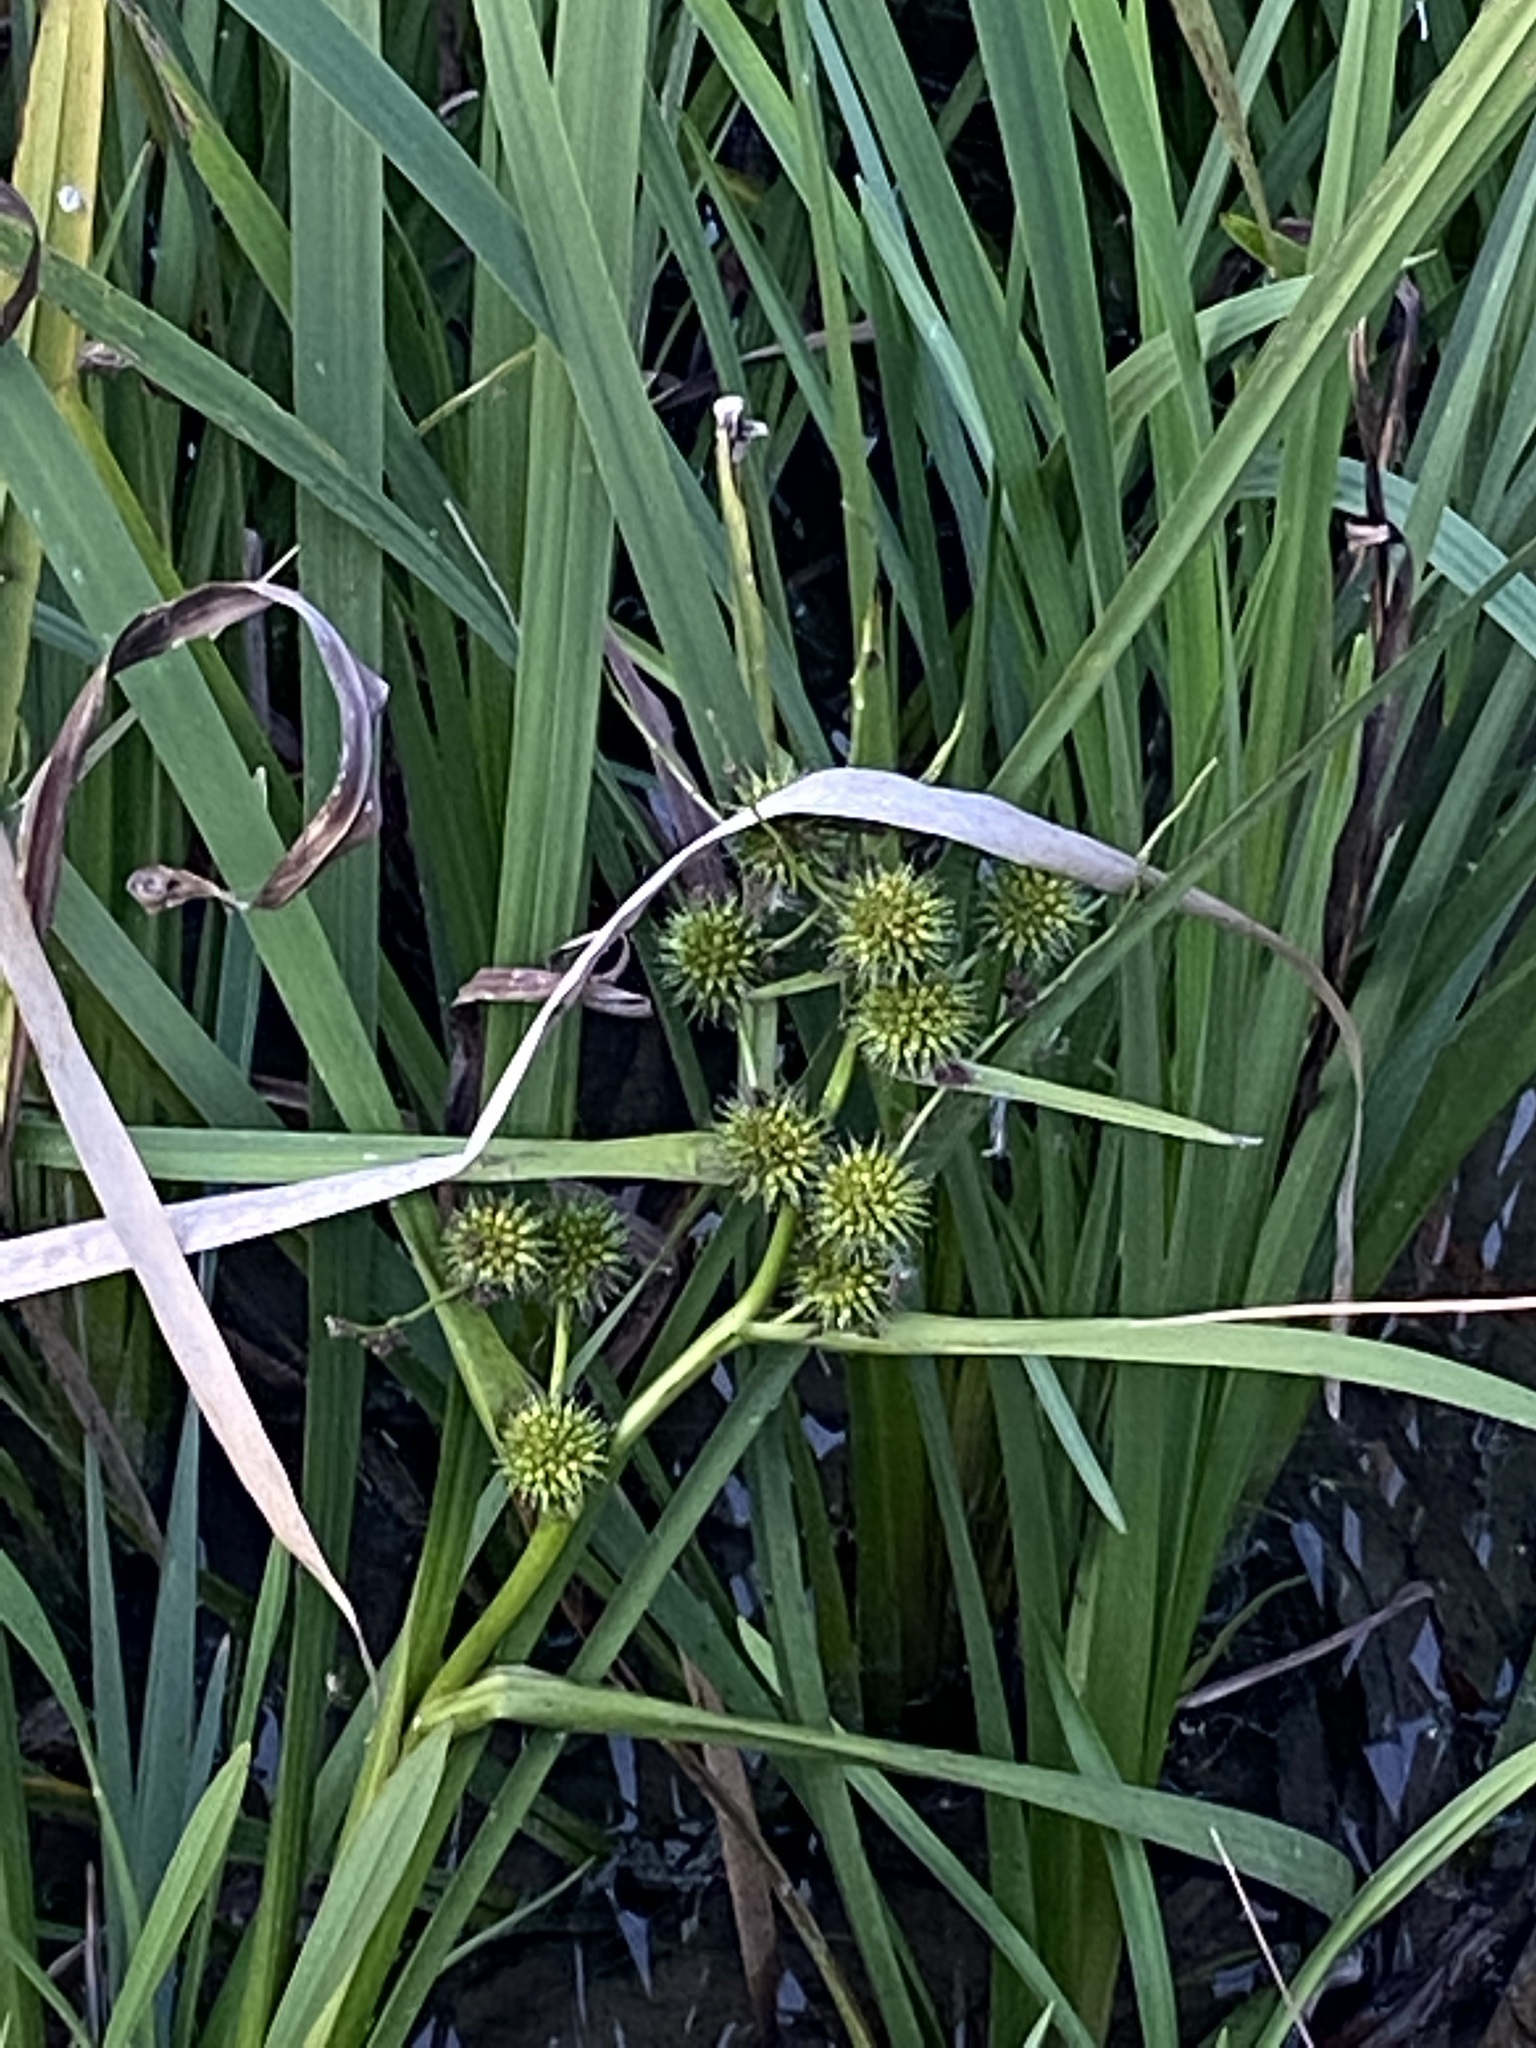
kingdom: Plantae
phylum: Tracheophyta
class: Liliopsida
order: Poales
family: Typhaceae
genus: Sparganium
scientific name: Sparganium erectum
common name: Branched bur-reed
